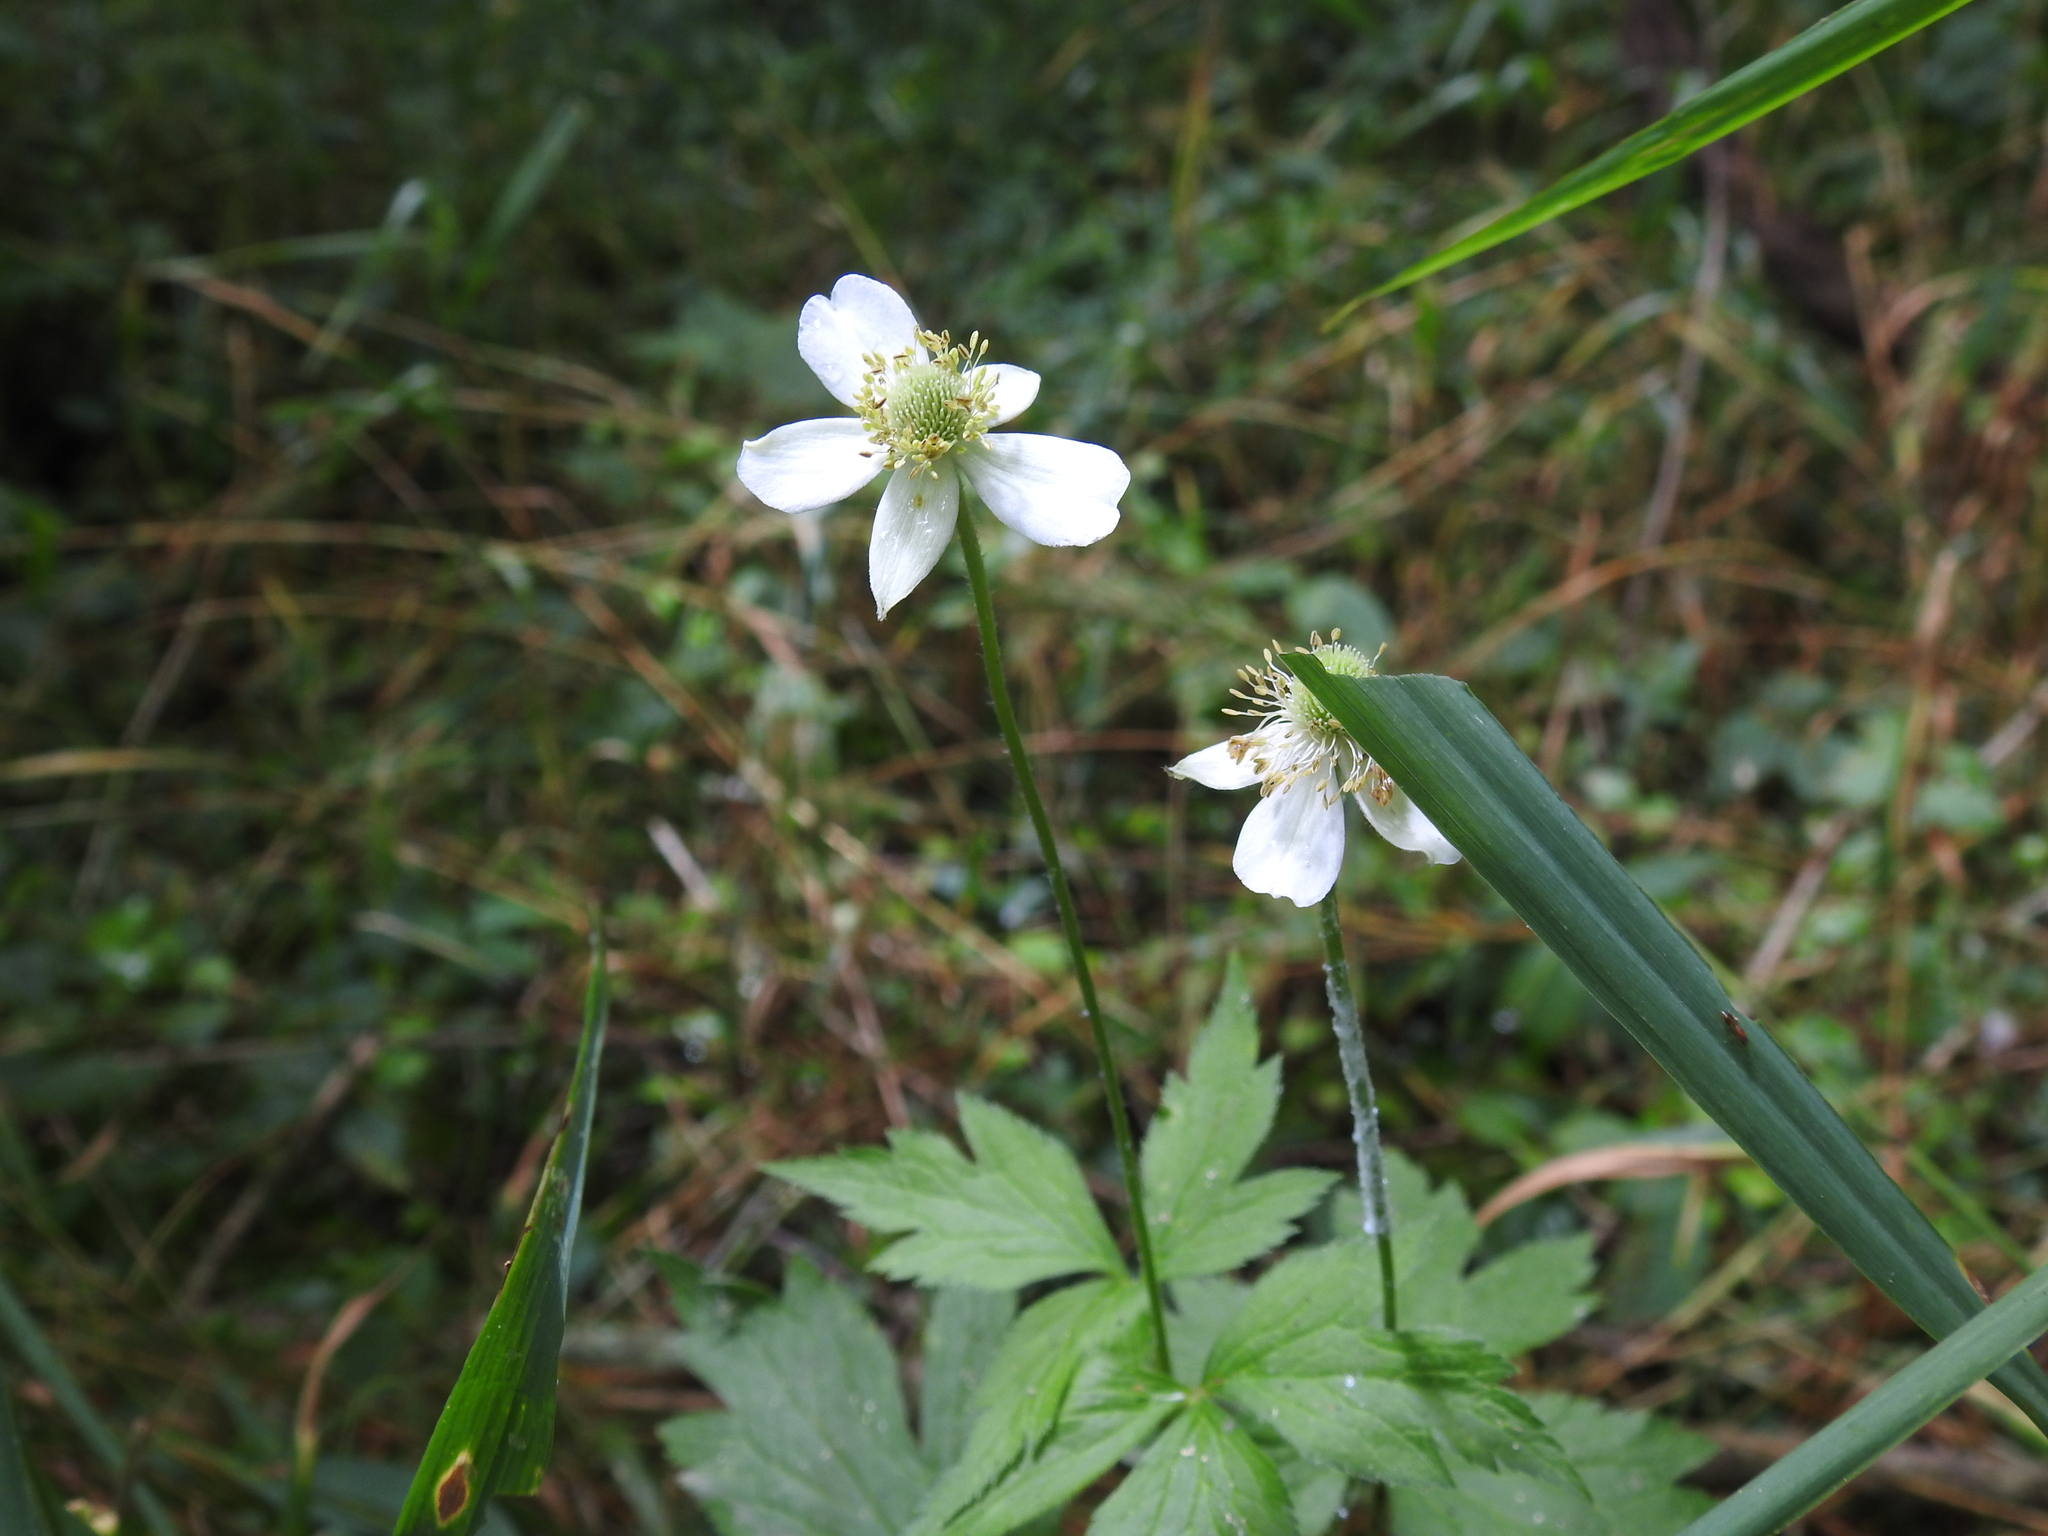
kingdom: Plantae
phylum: Tracheophyta
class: Magnoliopsida
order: Ranunculales
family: Ranunculaceae
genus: Anemone
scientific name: Anemone virginiana
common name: Tall anemone
